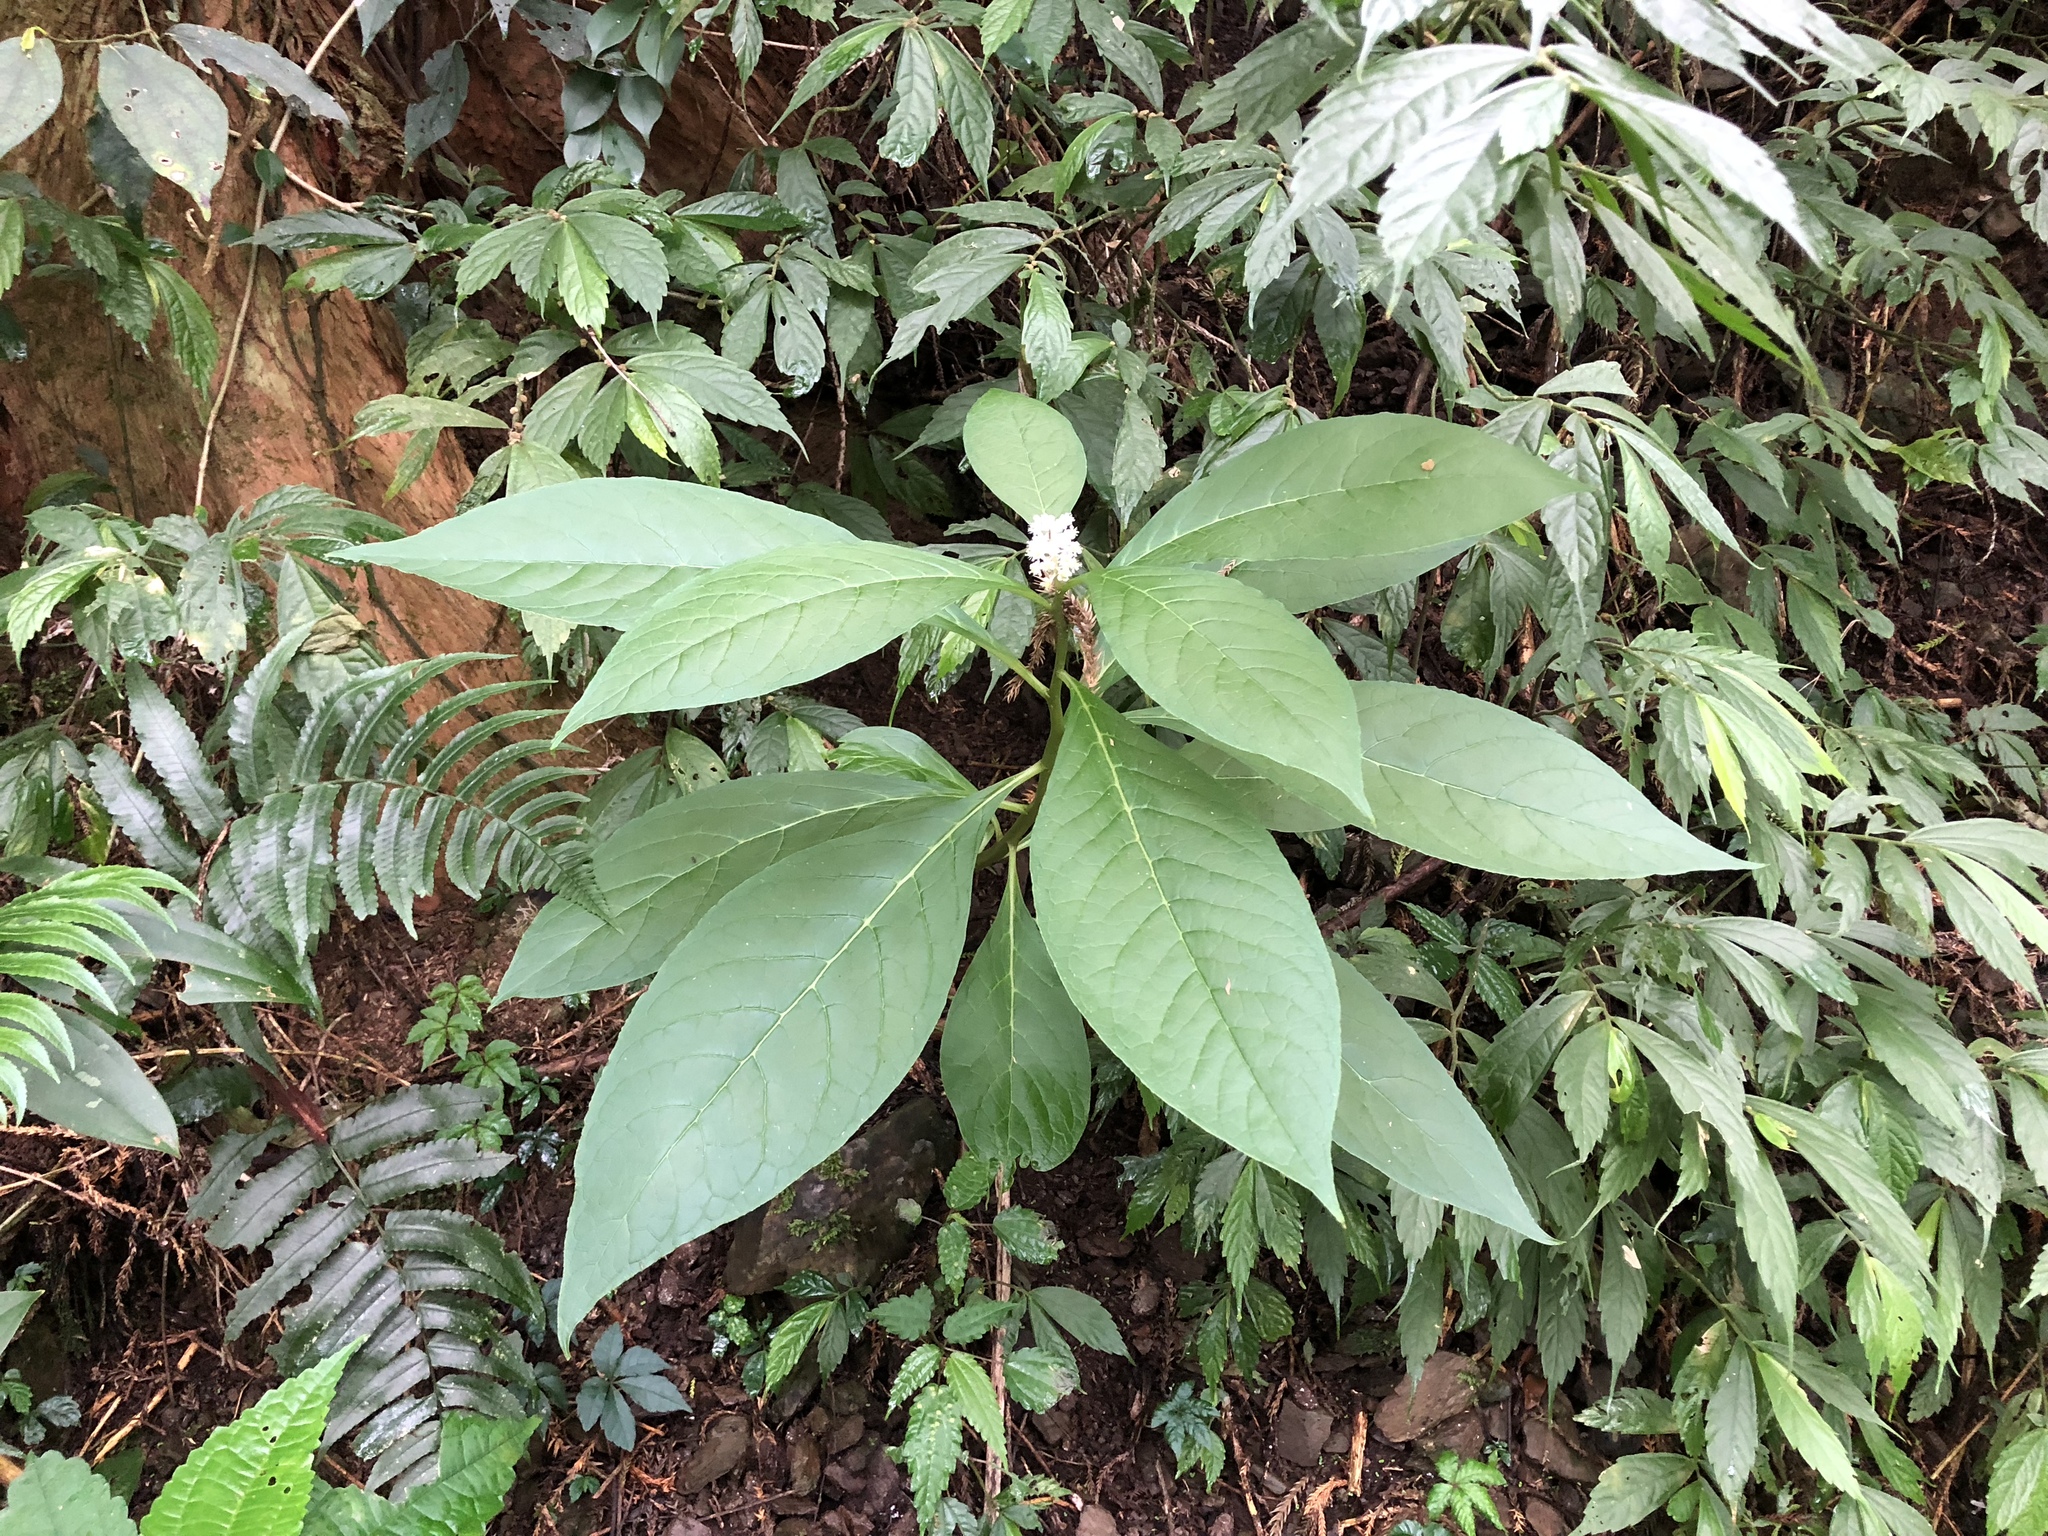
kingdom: Plantae
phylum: Tracheophyta
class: Magnoliopsida
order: Caryophyllales
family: Phytolaccaceae
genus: Phytolacca
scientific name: Phytolacca japonica
